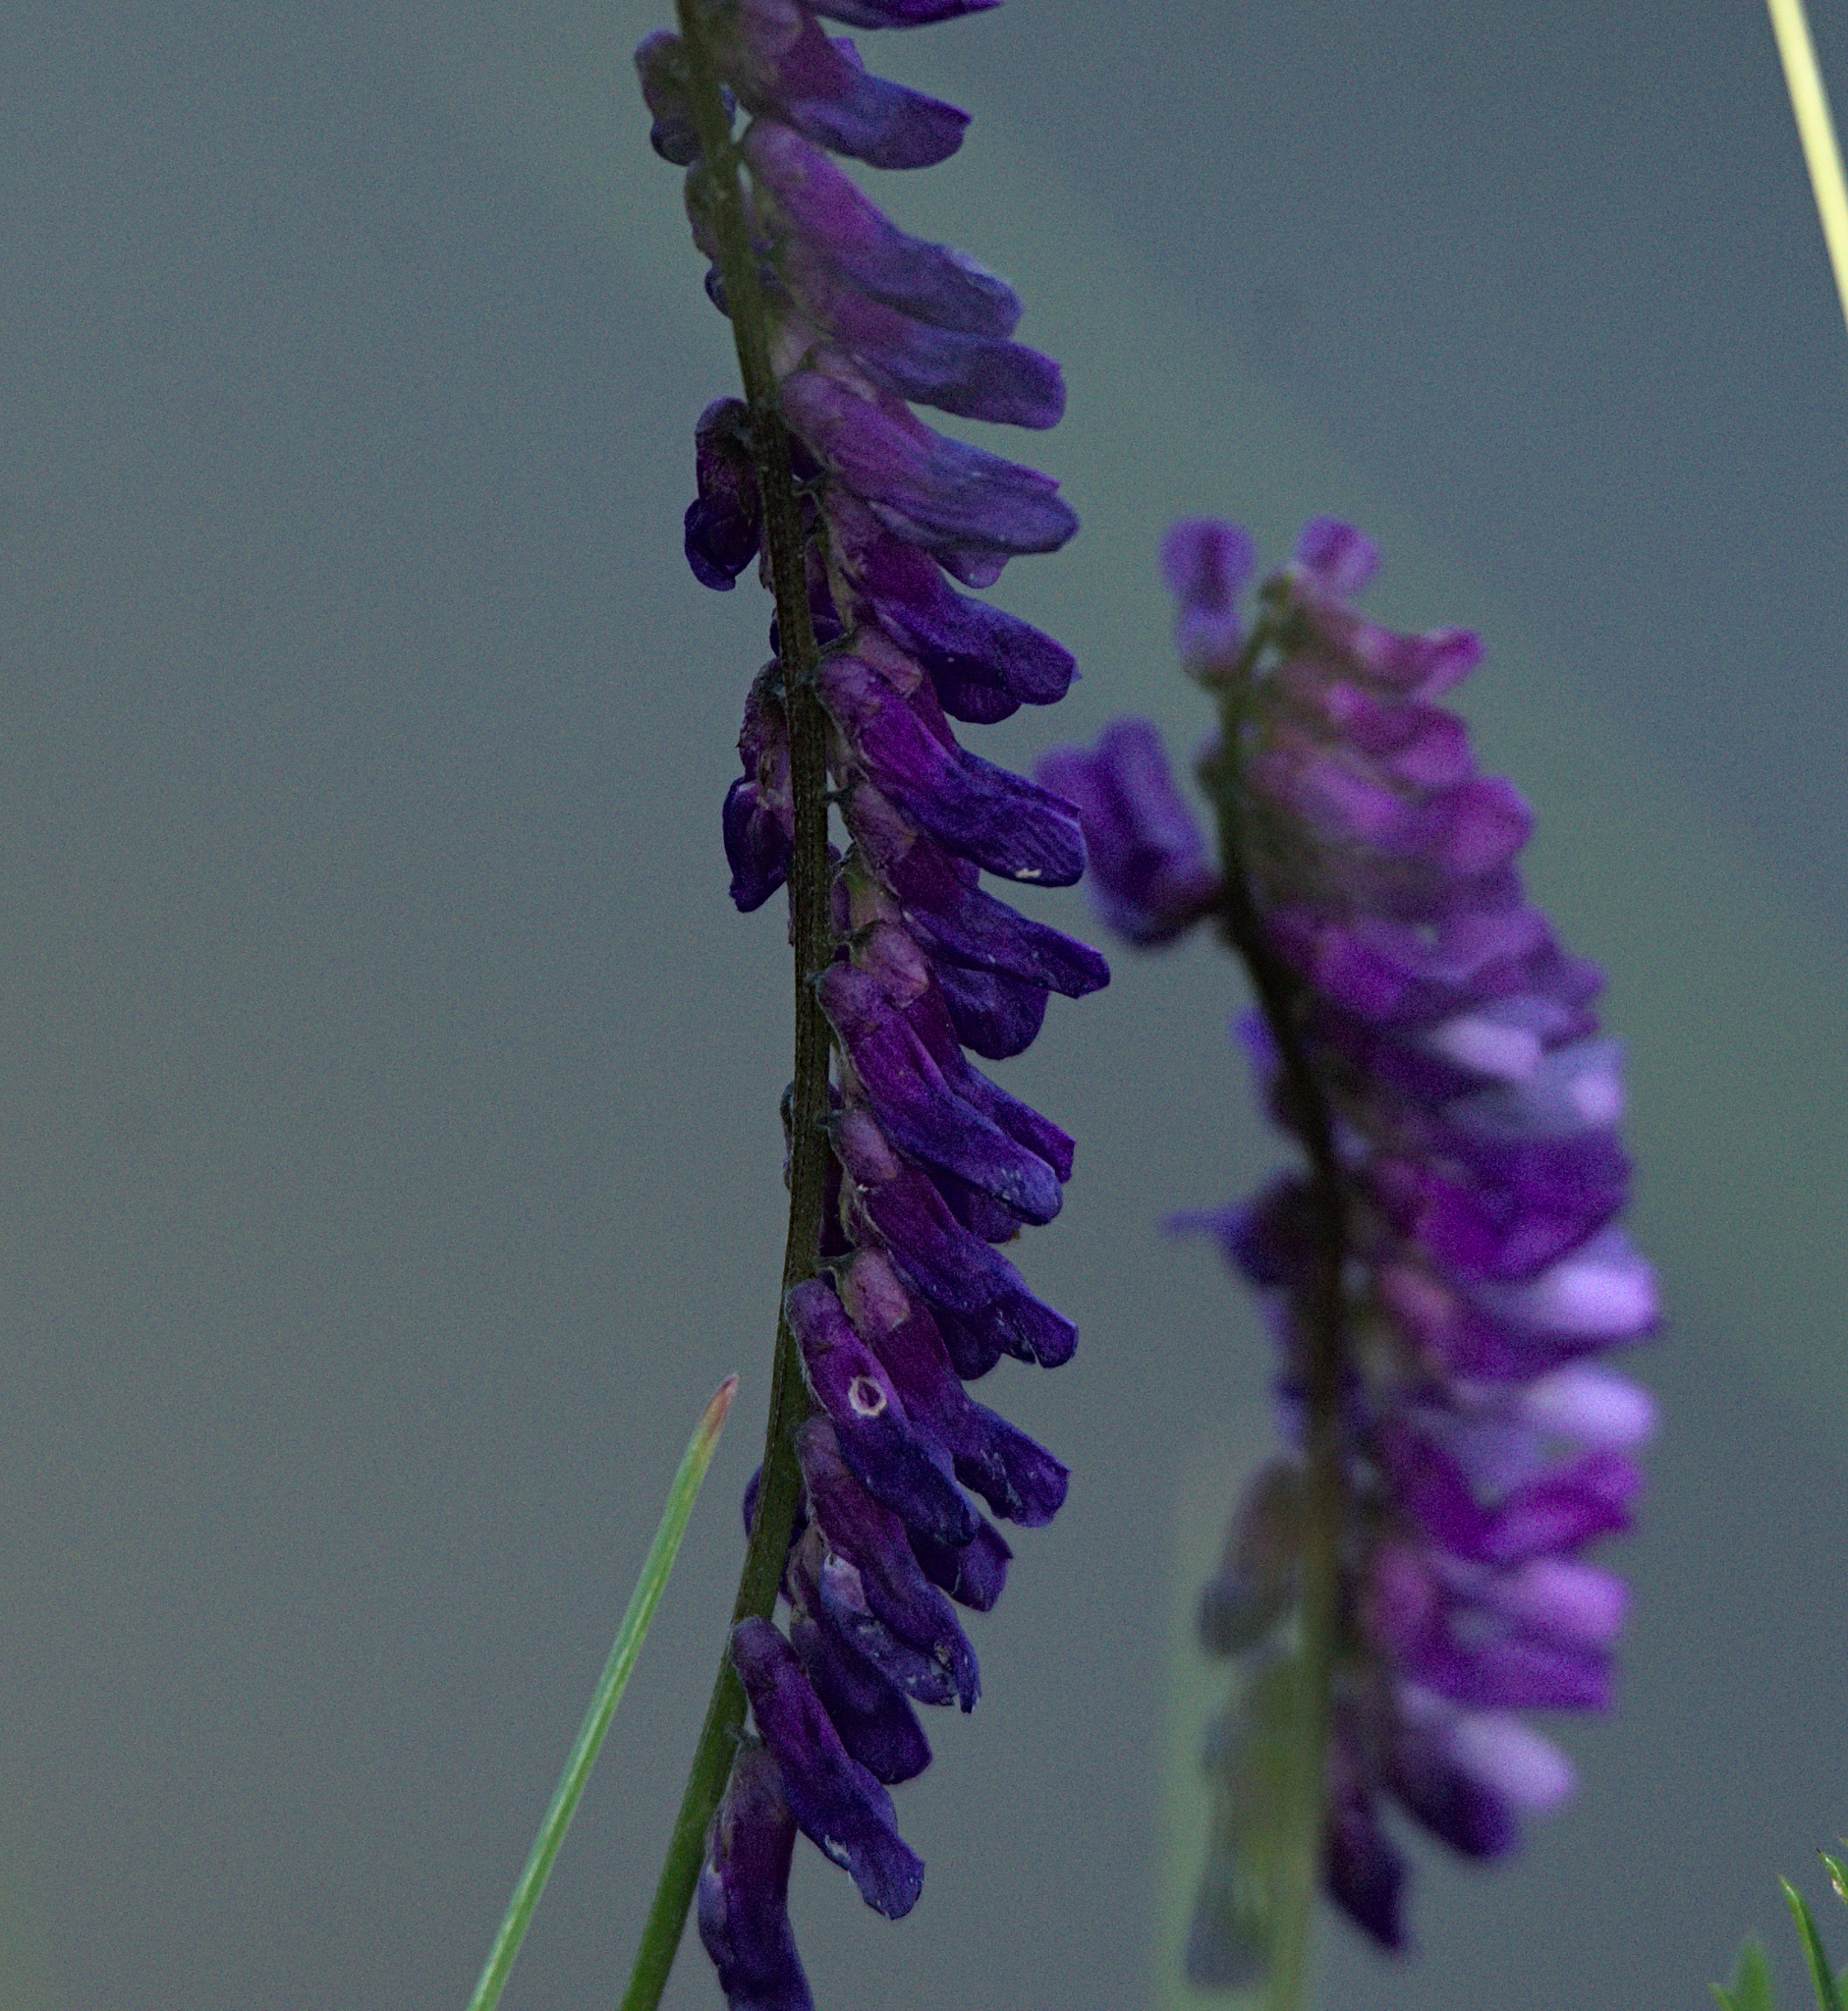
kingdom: Plantae
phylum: Tracheophyta
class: Magnoliopsida
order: Fabales
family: Fabaceae
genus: Vicia
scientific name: Vicia tenuifolia
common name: Fine-leaved vetch
